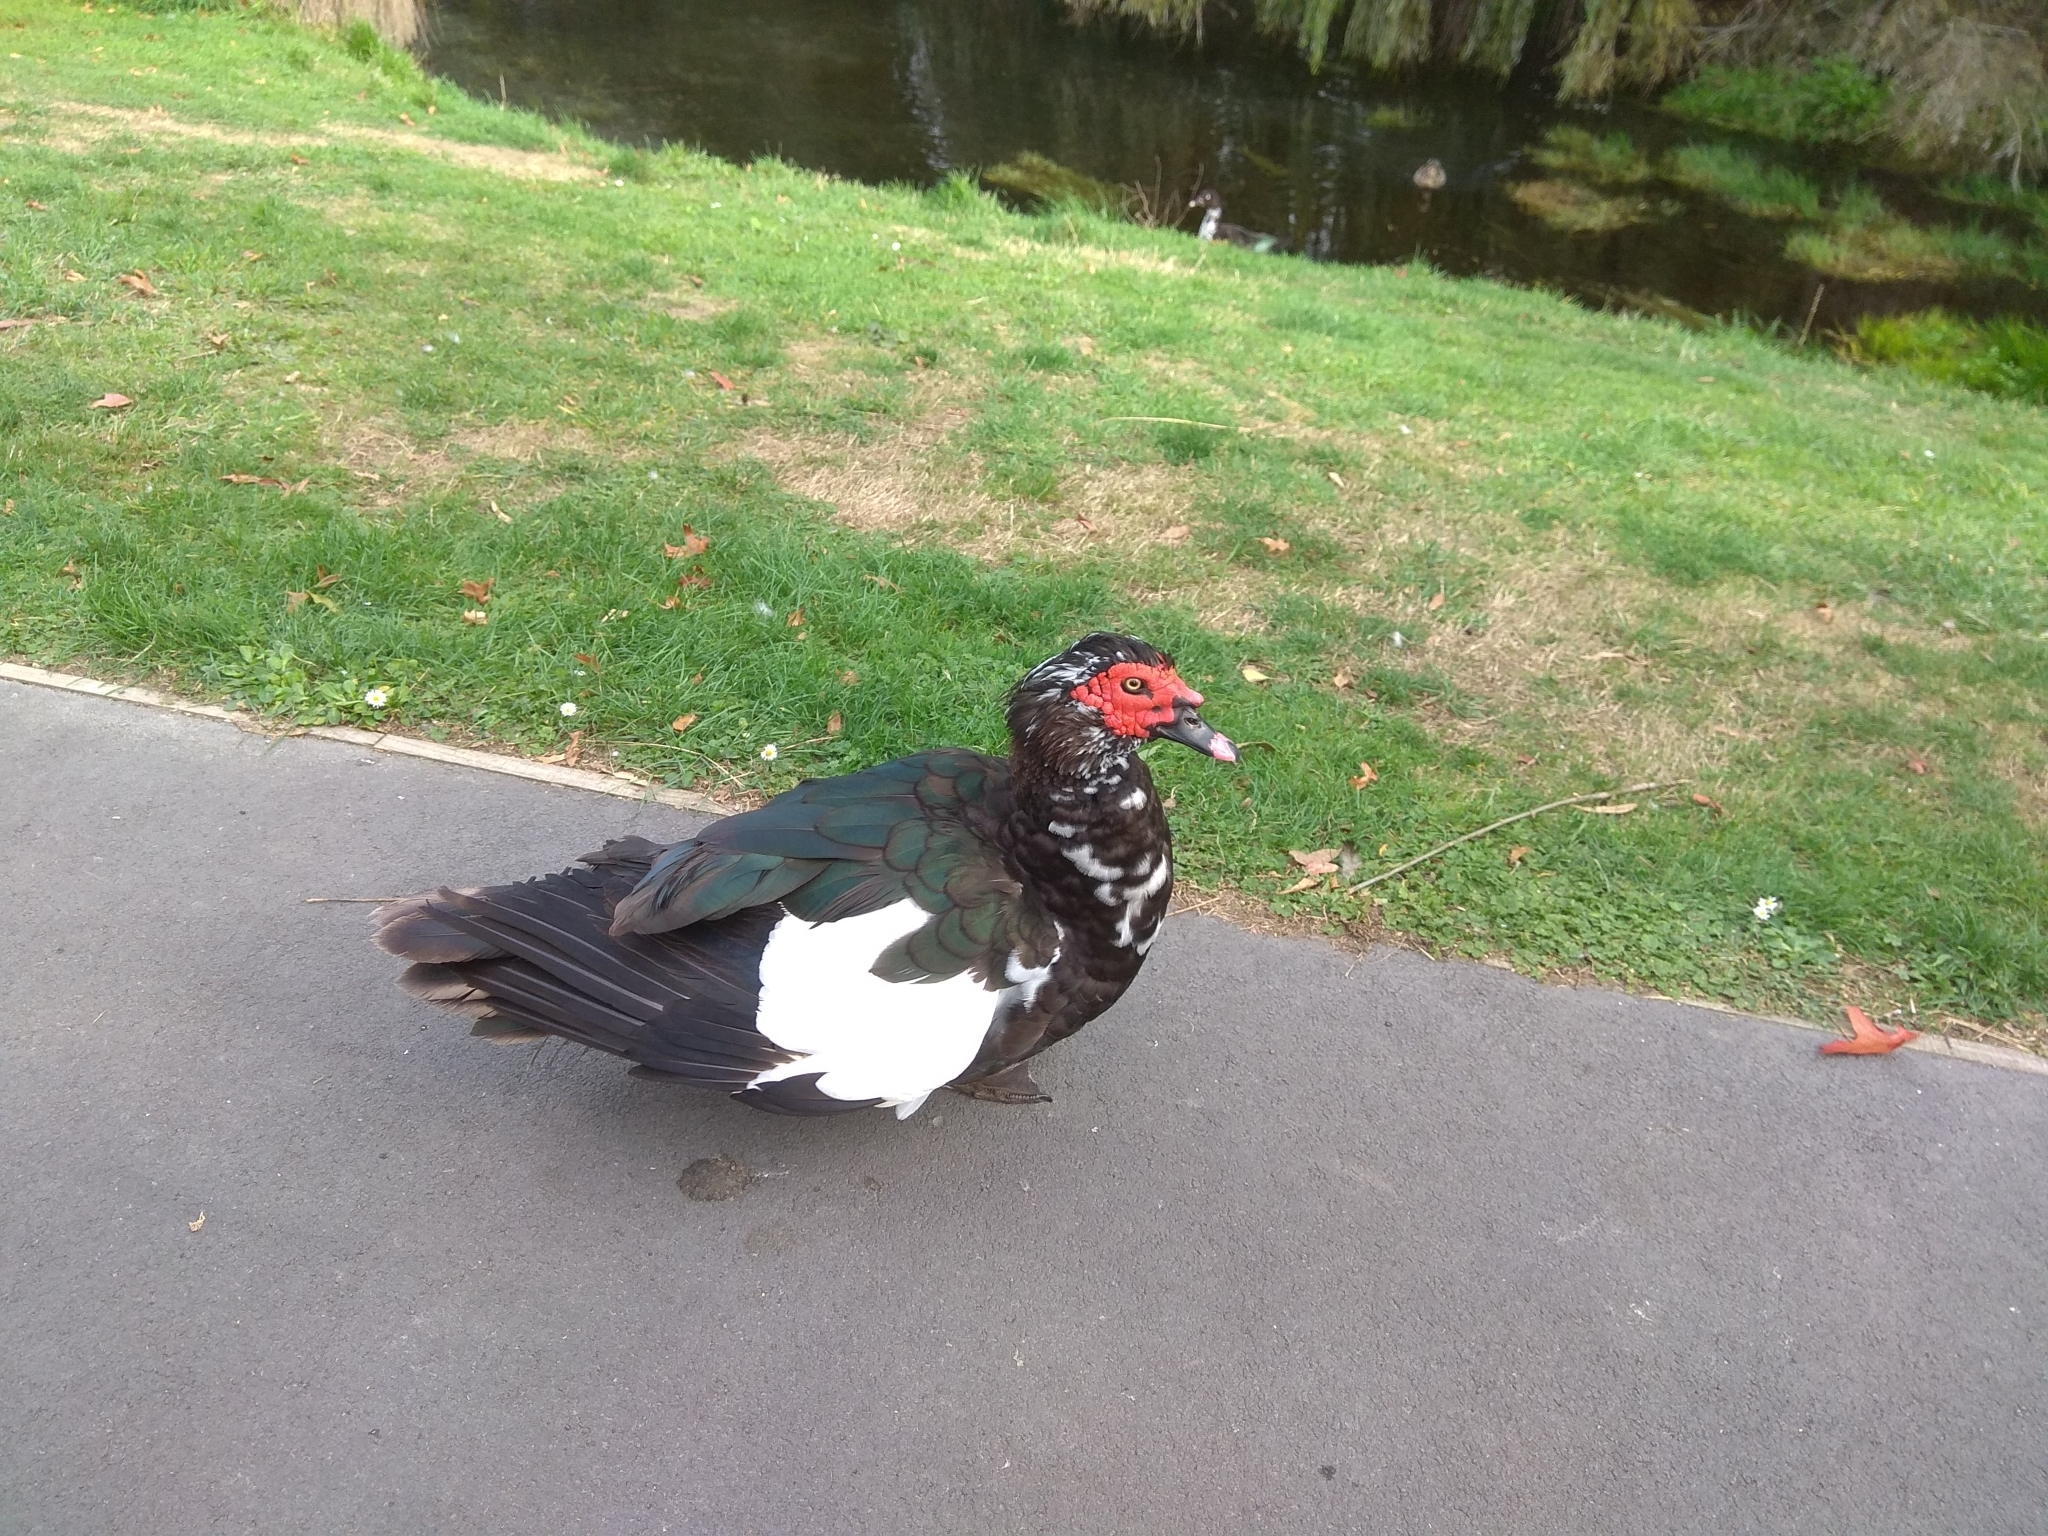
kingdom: Animalia
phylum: Chordata
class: Aves
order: Anseriformes
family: Anatidae
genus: Cairina
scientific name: Cairina moschata
